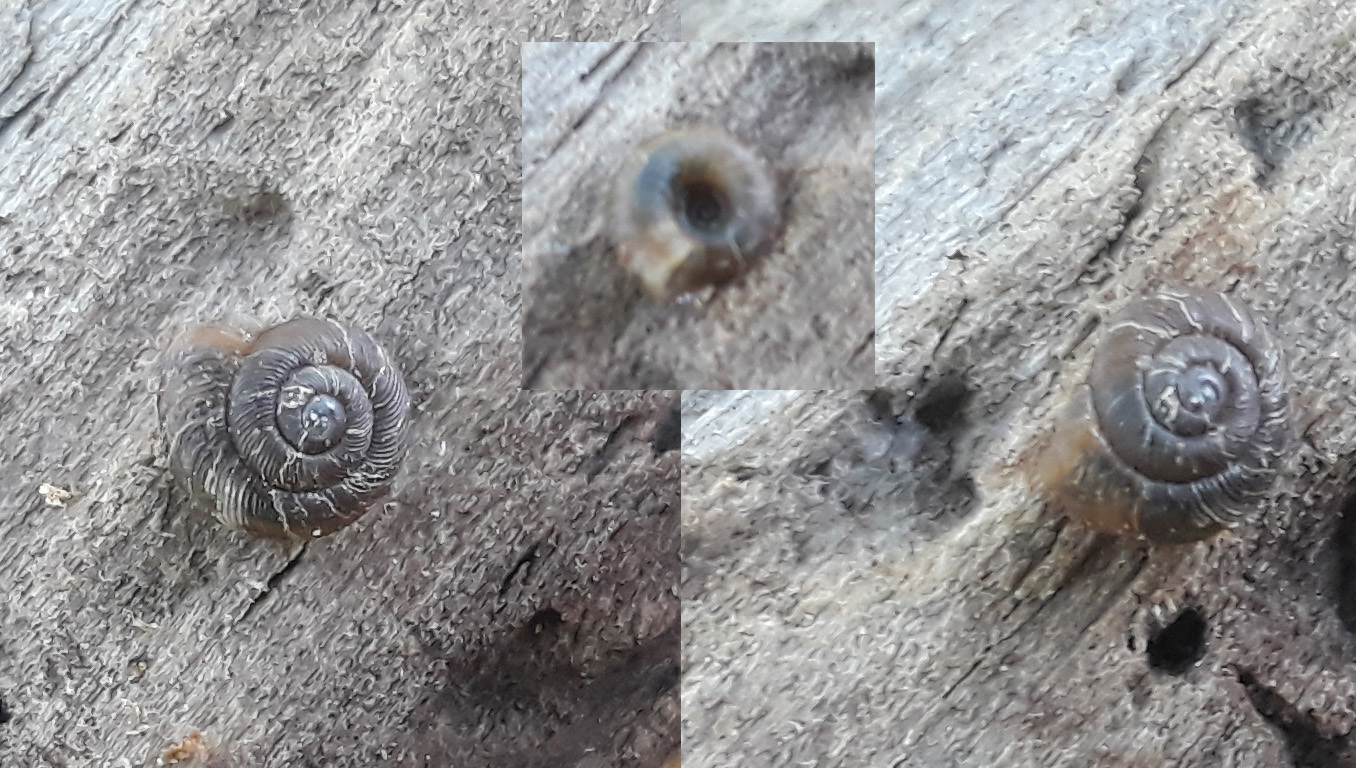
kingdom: Animalia
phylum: Mollusca
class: Gastropoda
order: Stylommatophora
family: Discidae
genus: Discus
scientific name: Discus ruderatus
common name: Brown disc snail
